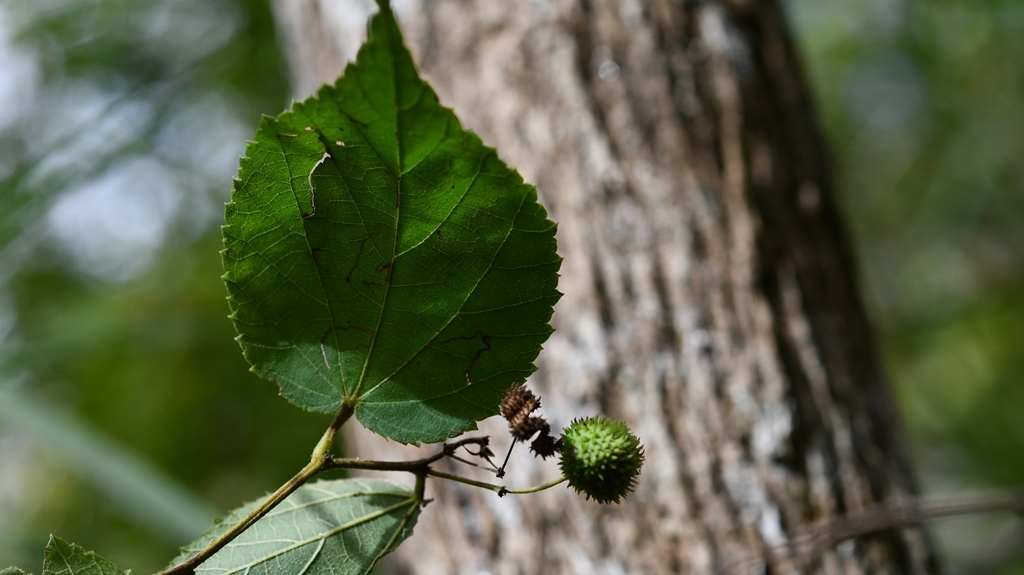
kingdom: Plantae
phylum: Tracheophyta
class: Magnoliopsida
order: Malvales
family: Malvaceae
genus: Ayenia
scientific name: Ayenia micrantha
